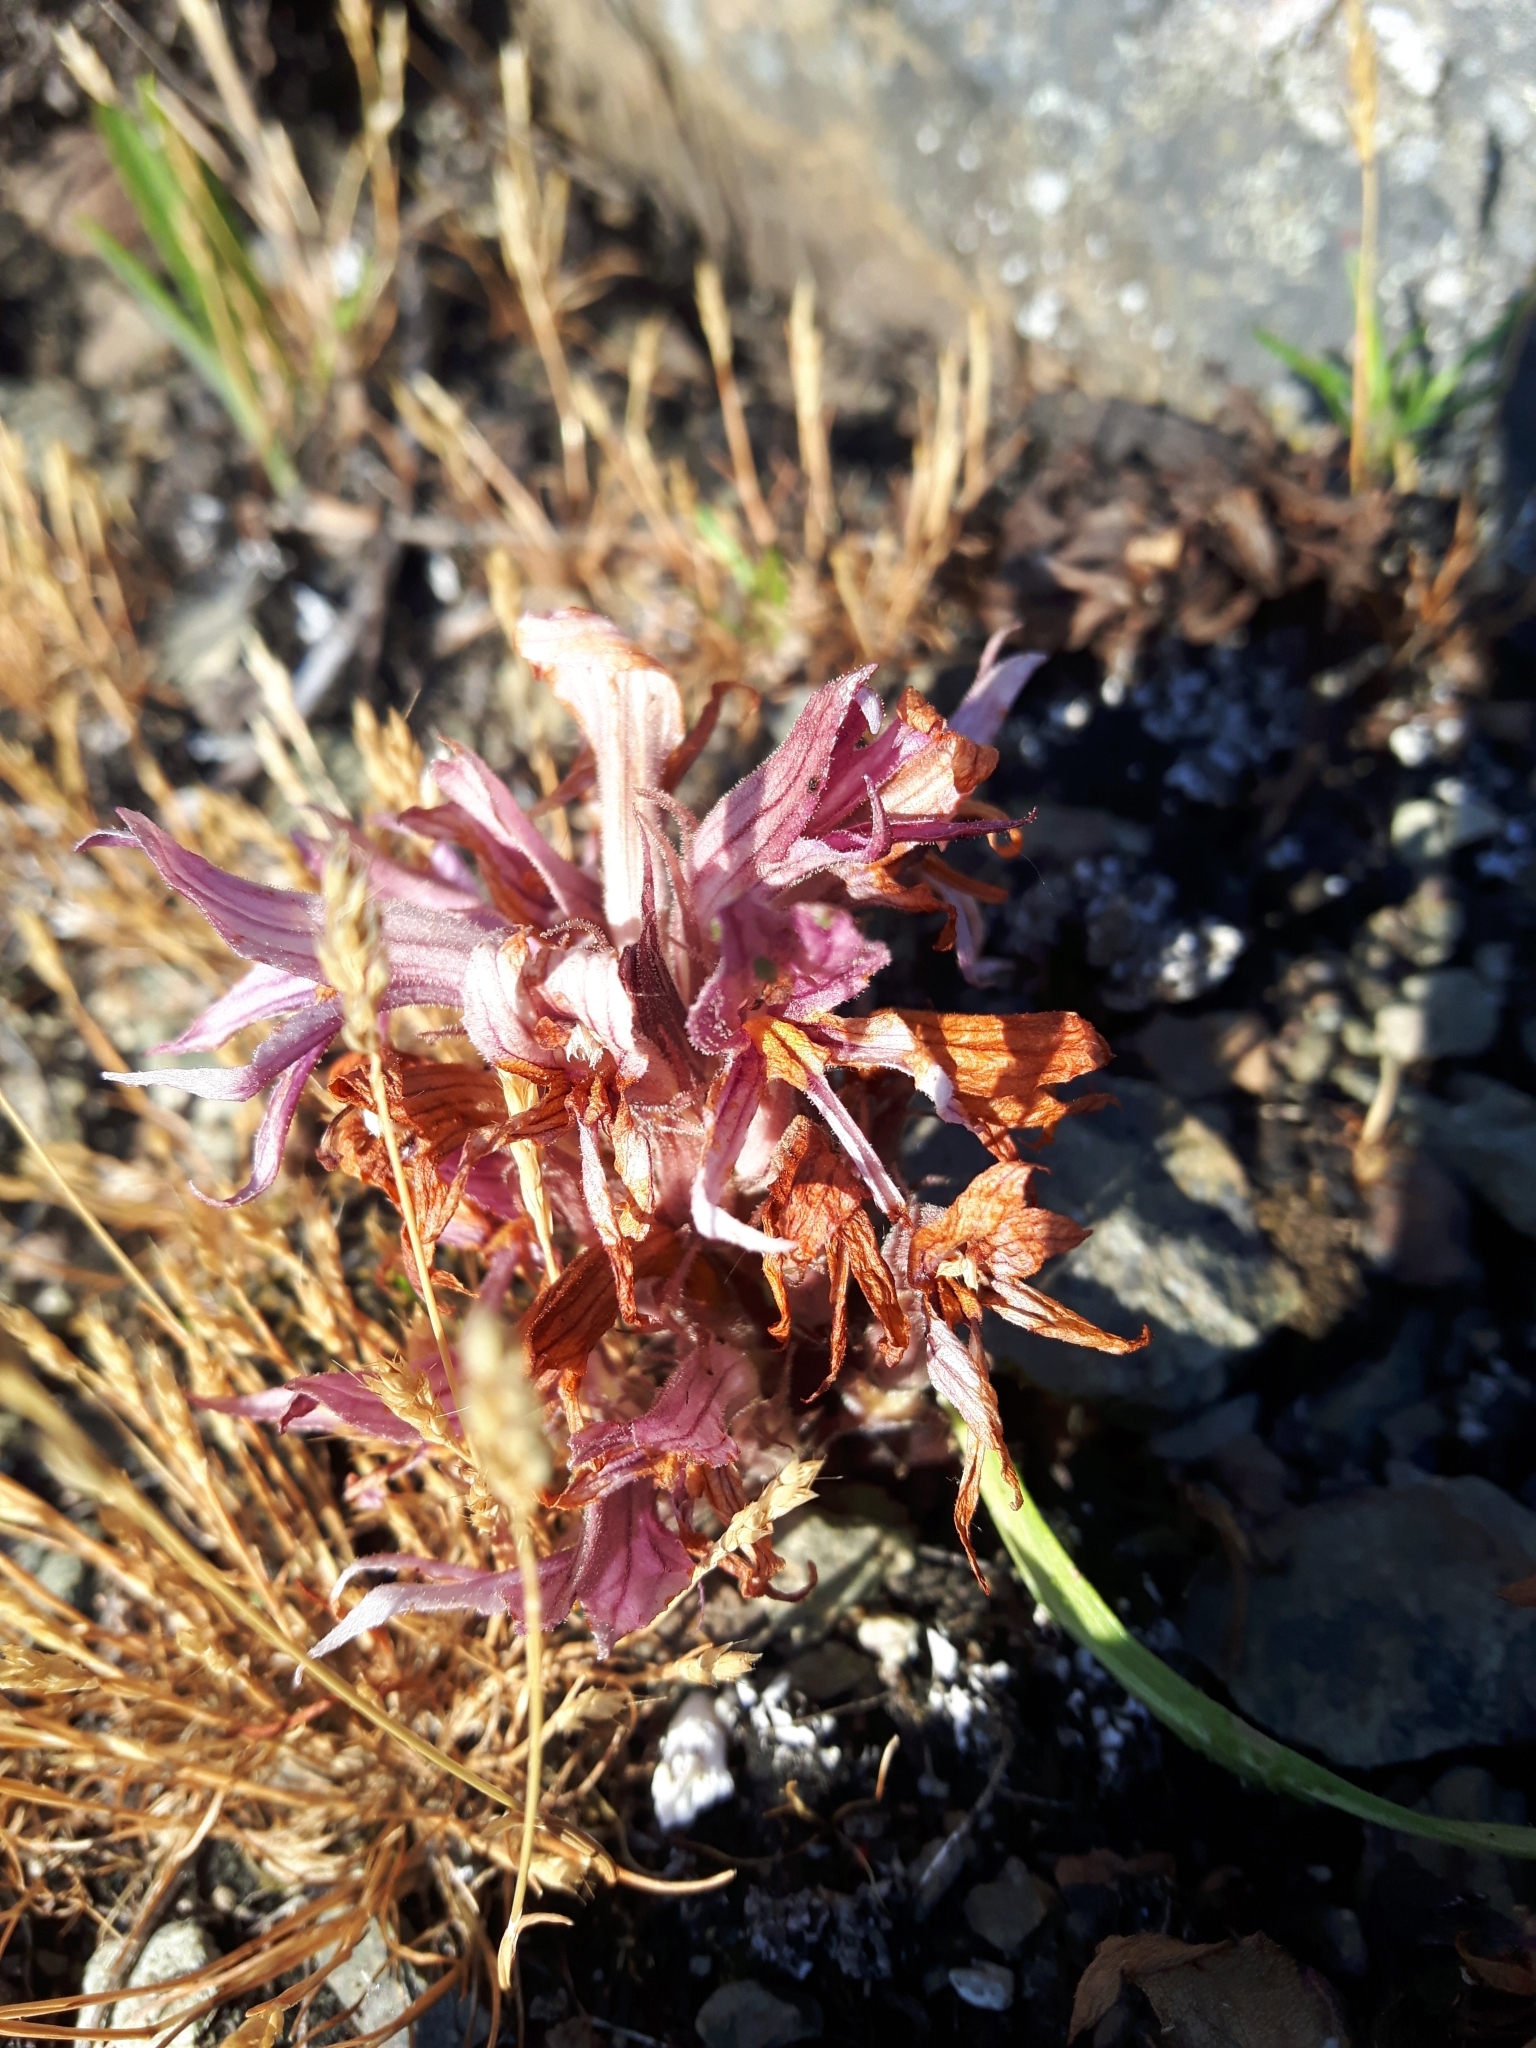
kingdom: Plantae
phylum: Tracheophyta
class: Magnoliopsida
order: Lamiales
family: Orobanchaceae
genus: Aphyllon
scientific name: Aphyllon californicum
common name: California broomrape
